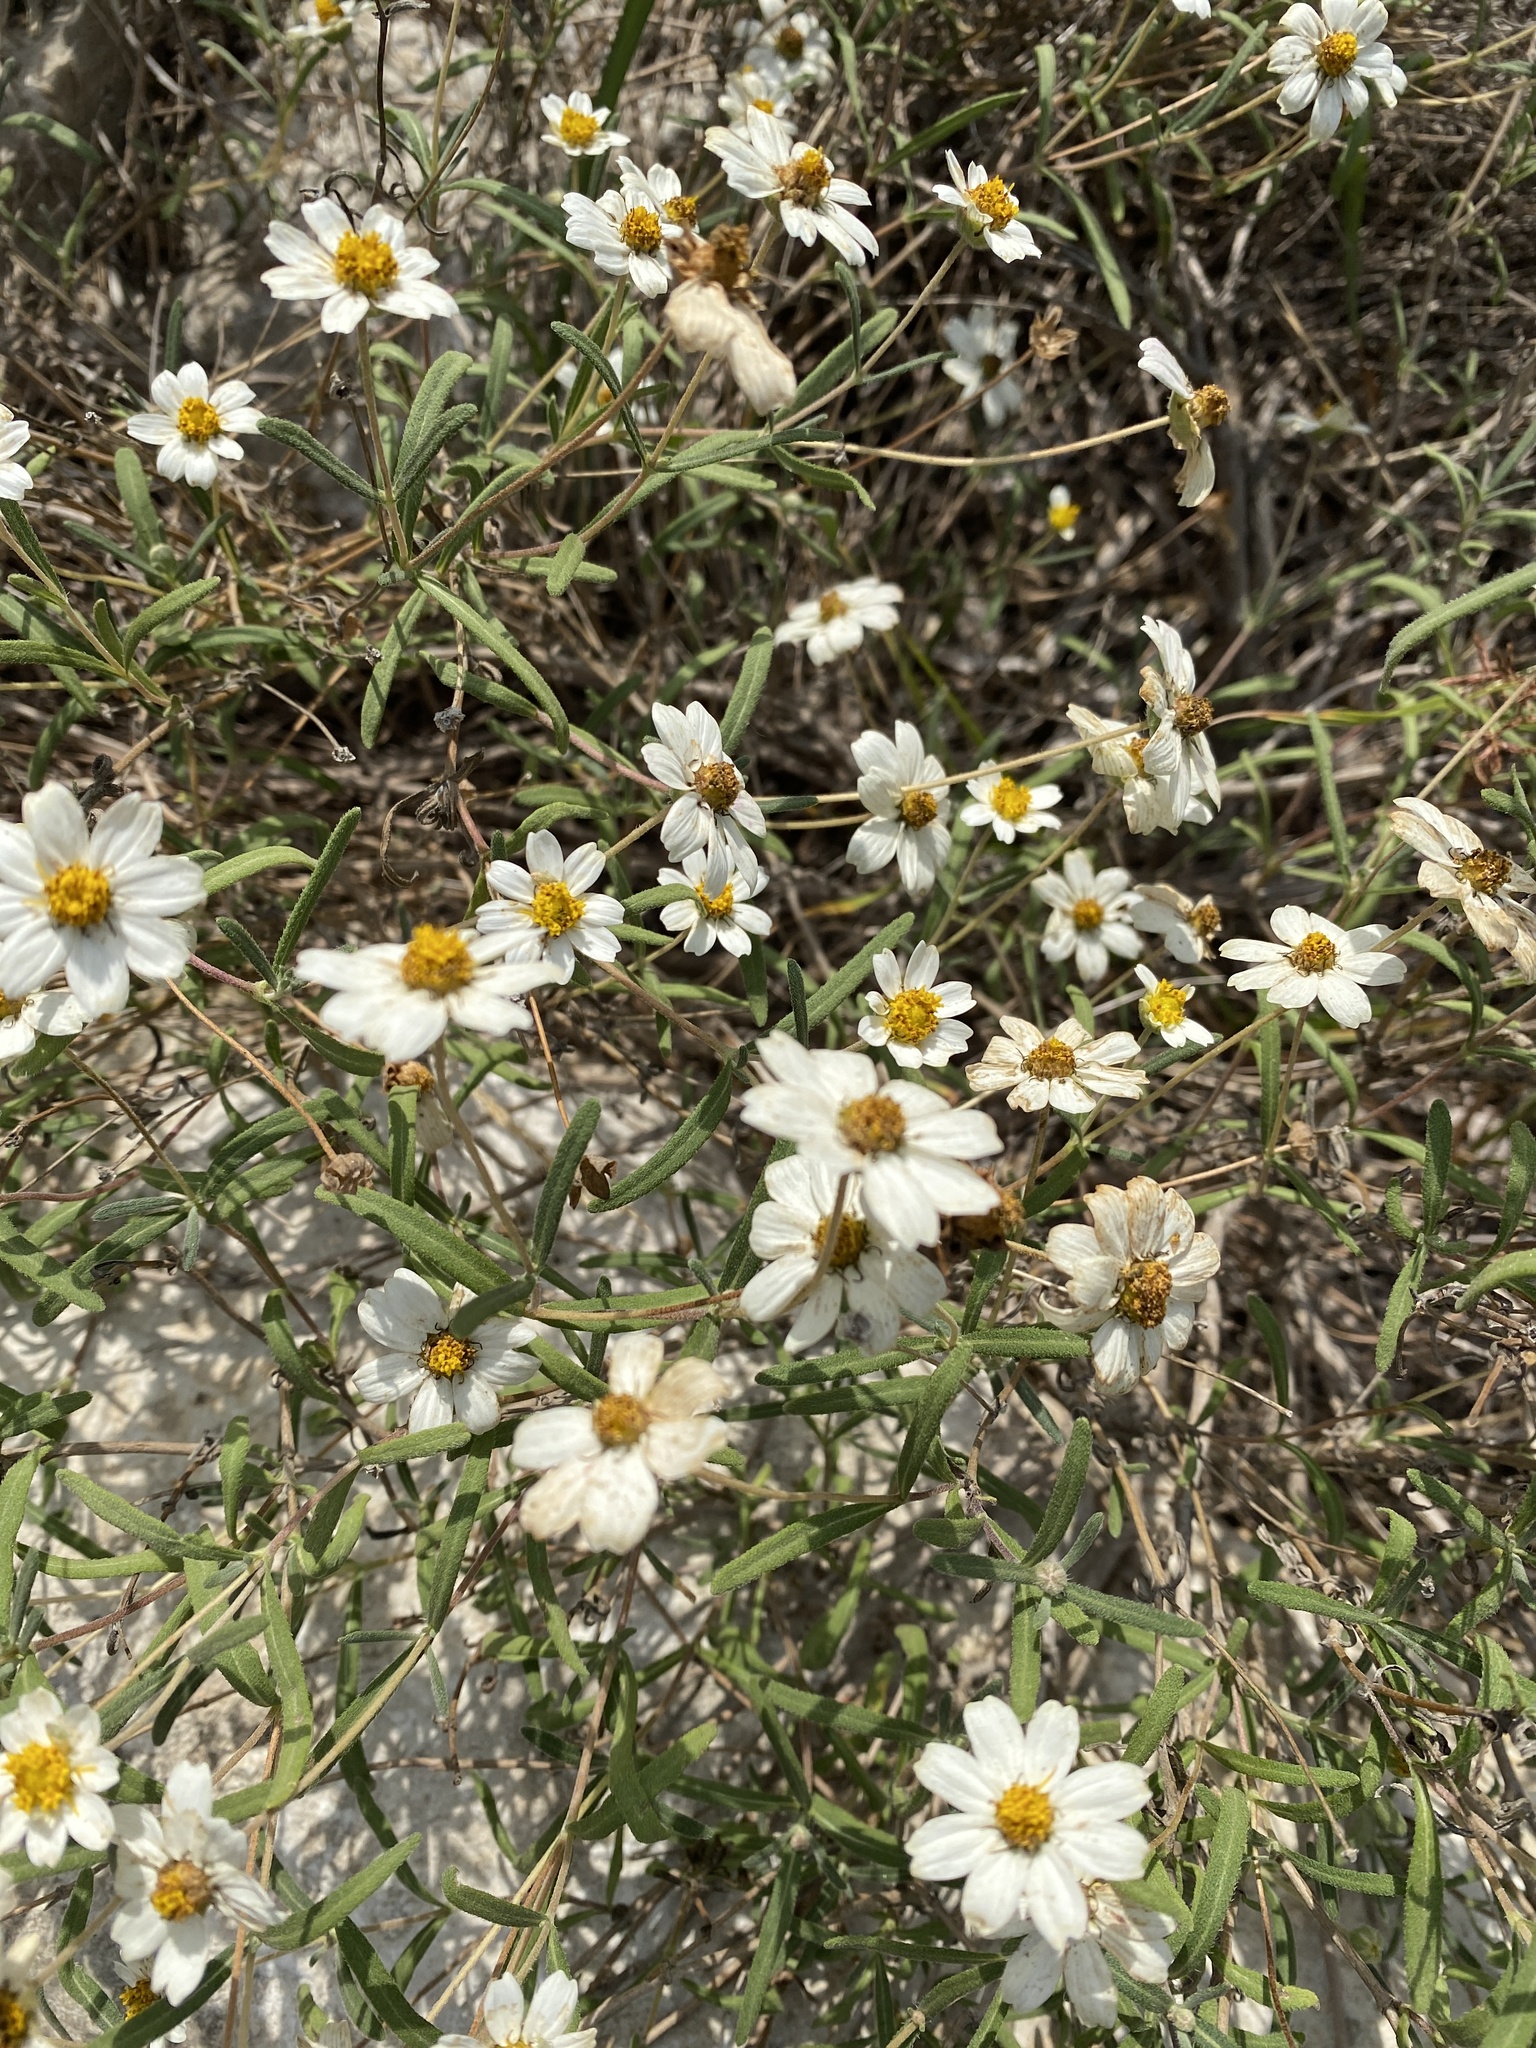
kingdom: Plantae
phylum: Tracheophyta
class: Magnoliopsida
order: Asterales
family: Asteraceae
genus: Melampodium
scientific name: Melampodium leucanthum
